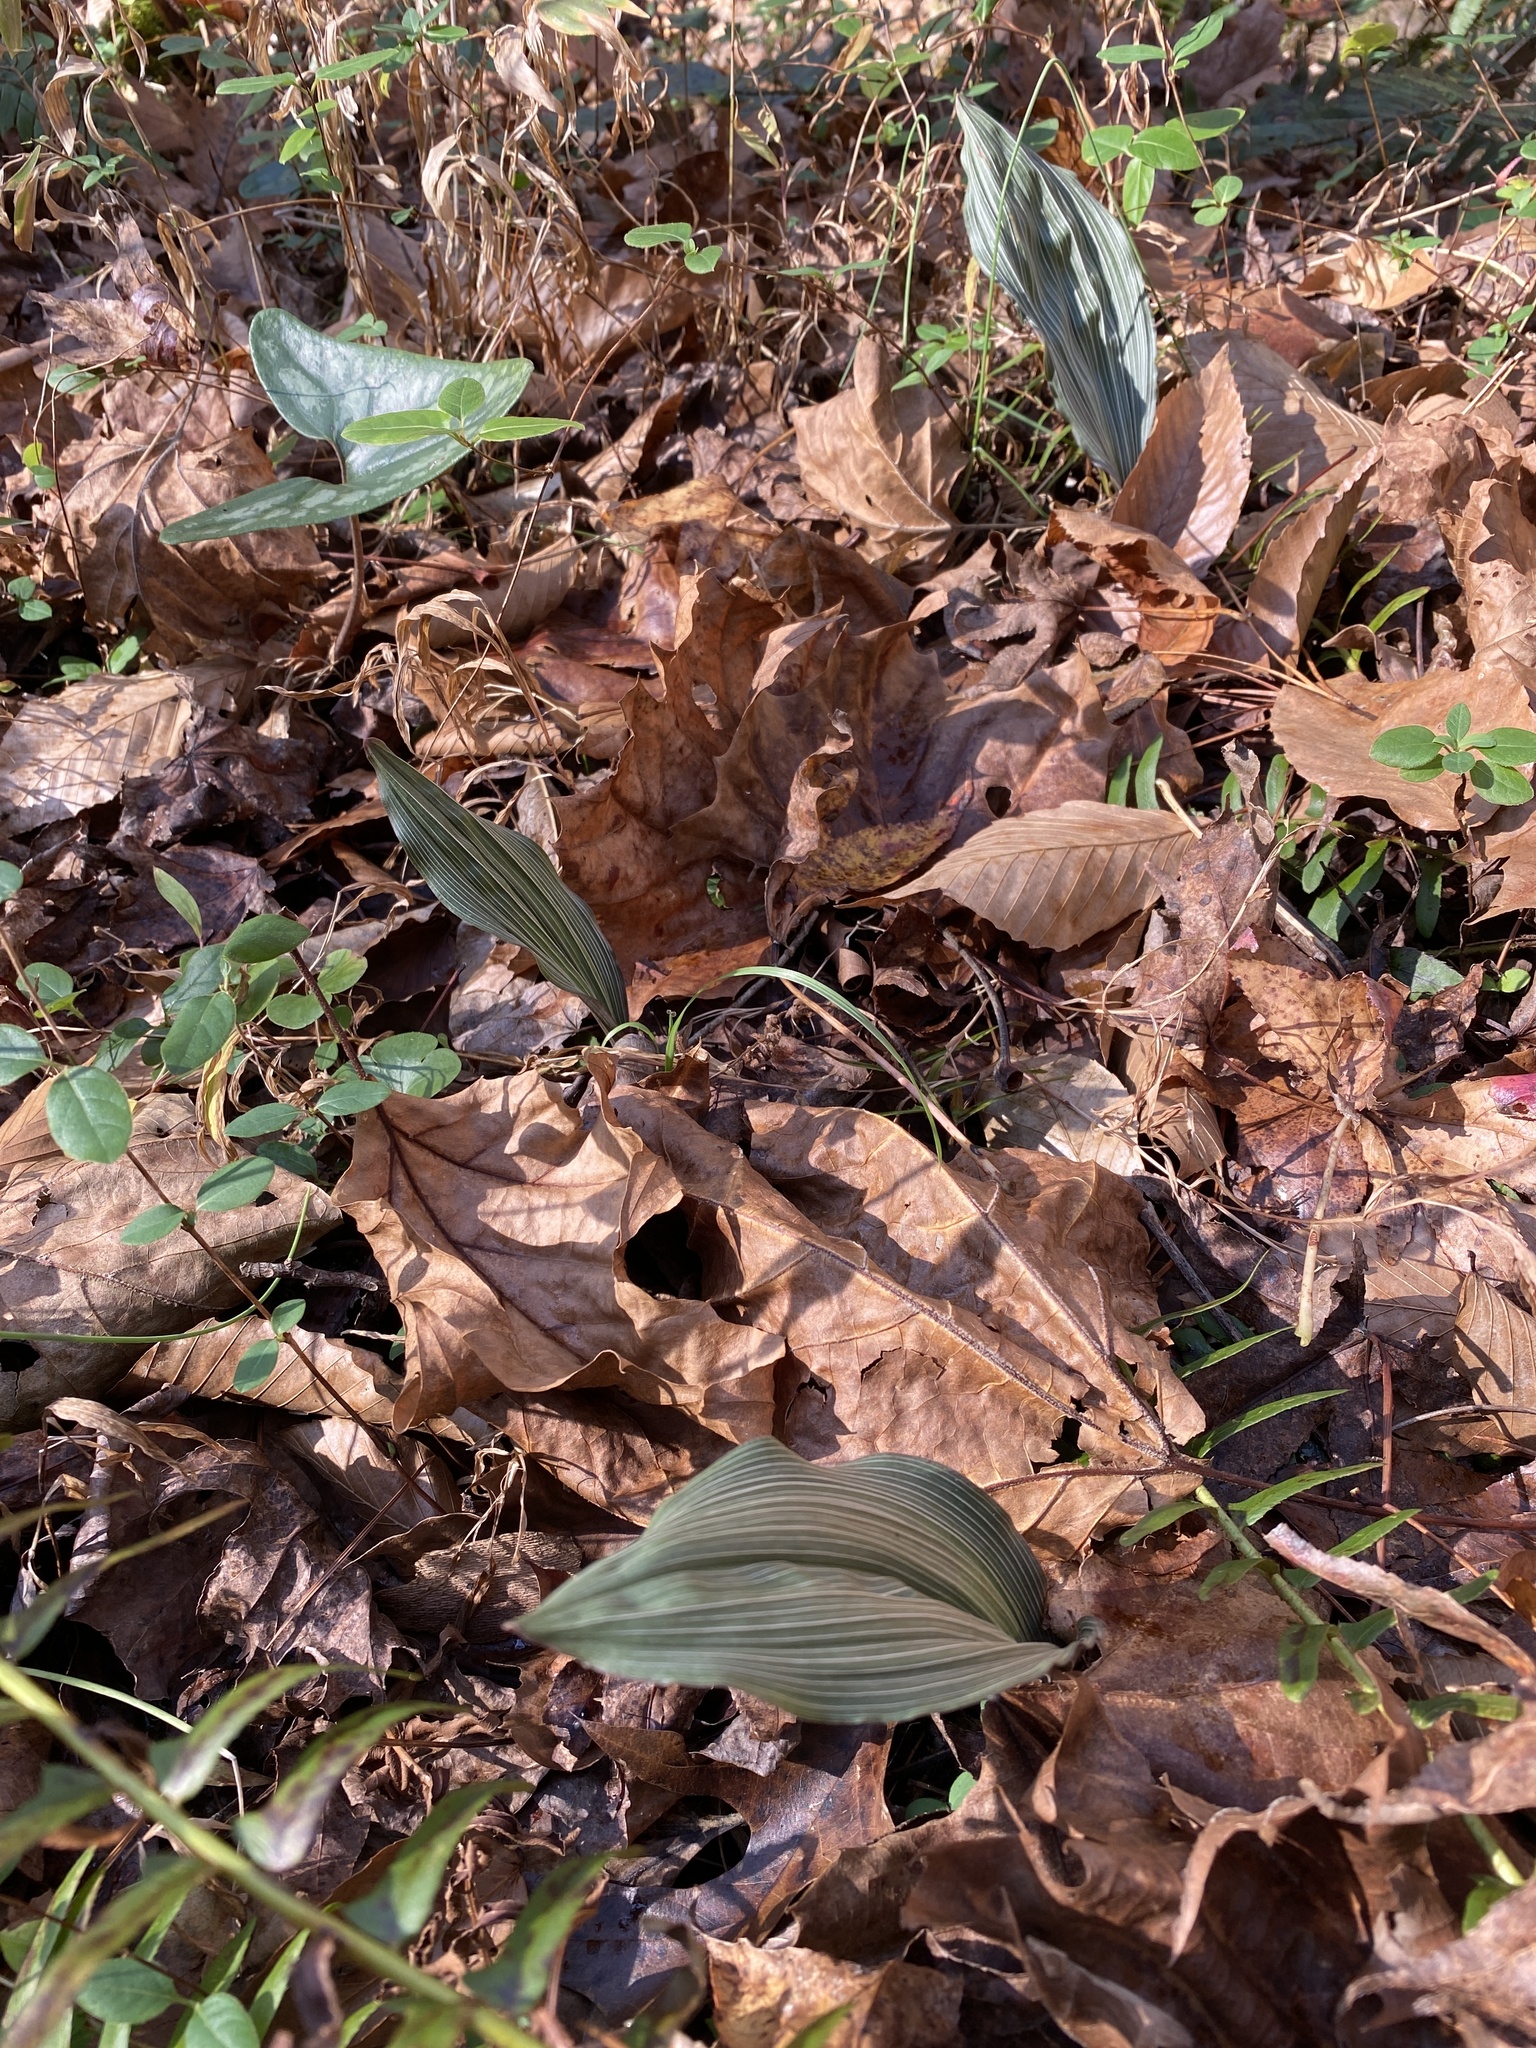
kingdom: Plantae
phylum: Tracheophyta
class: Liliopsida
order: Asparagales
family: Orchidaceae
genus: Aplectrum
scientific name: Aplectrum hyemale
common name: Adam-and-eve
